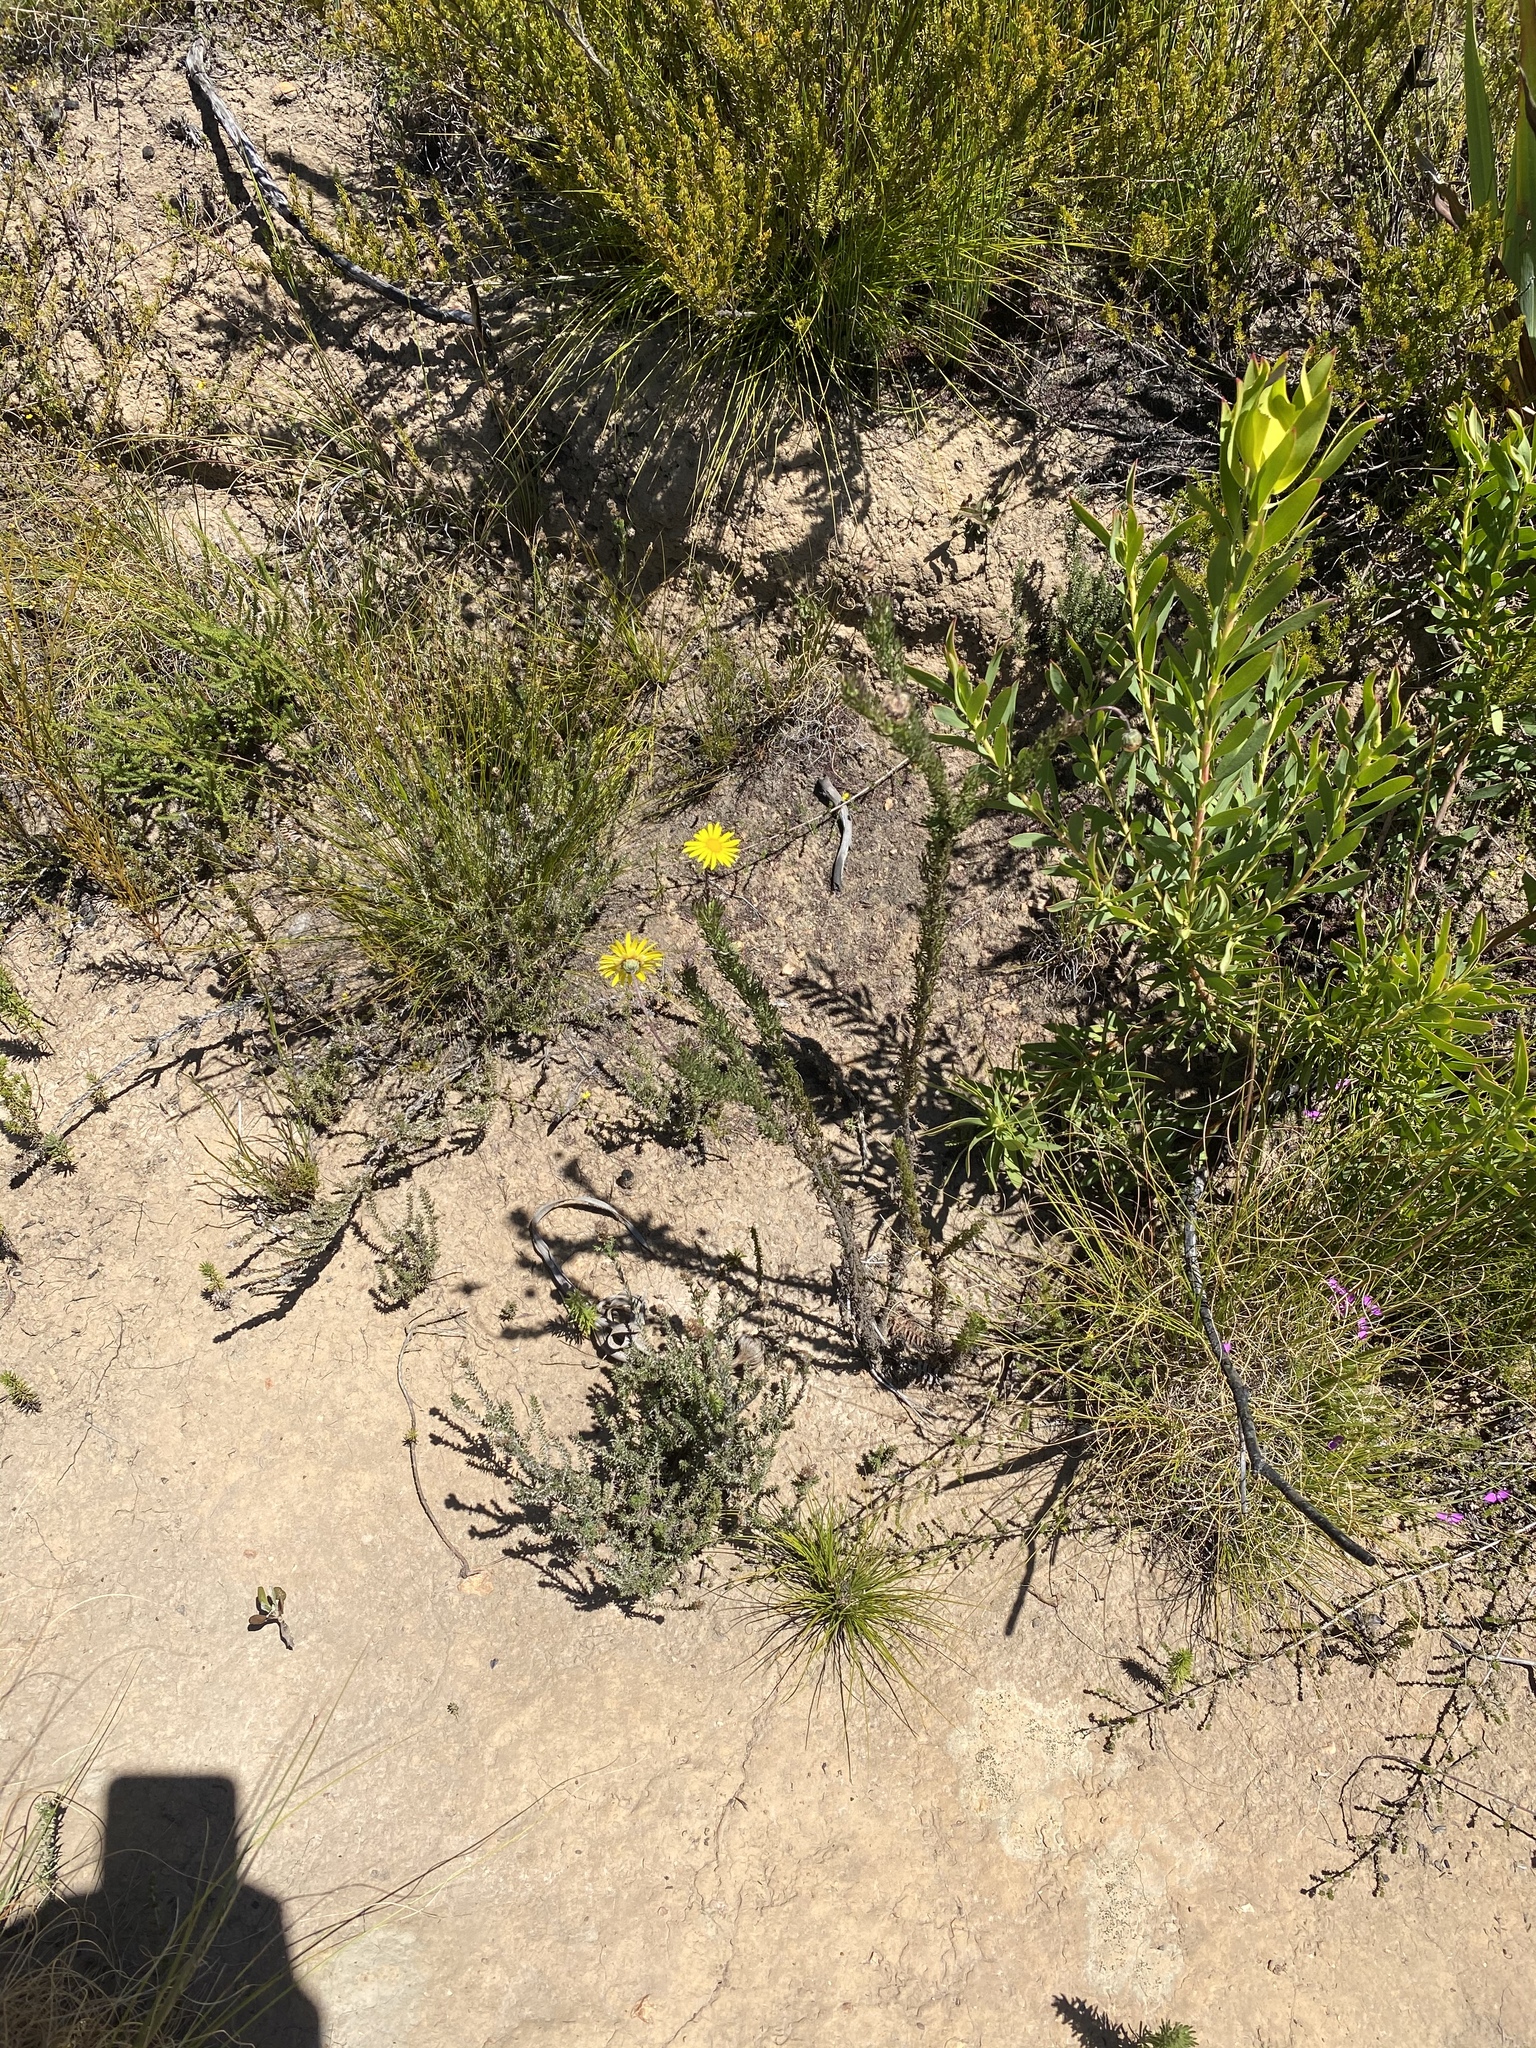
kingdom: Plantae
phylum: Tracheophyta
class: Magnoliopsida
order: Asterales
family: Asteraceae
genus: Ursinia
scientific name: Ursinia anethoides
